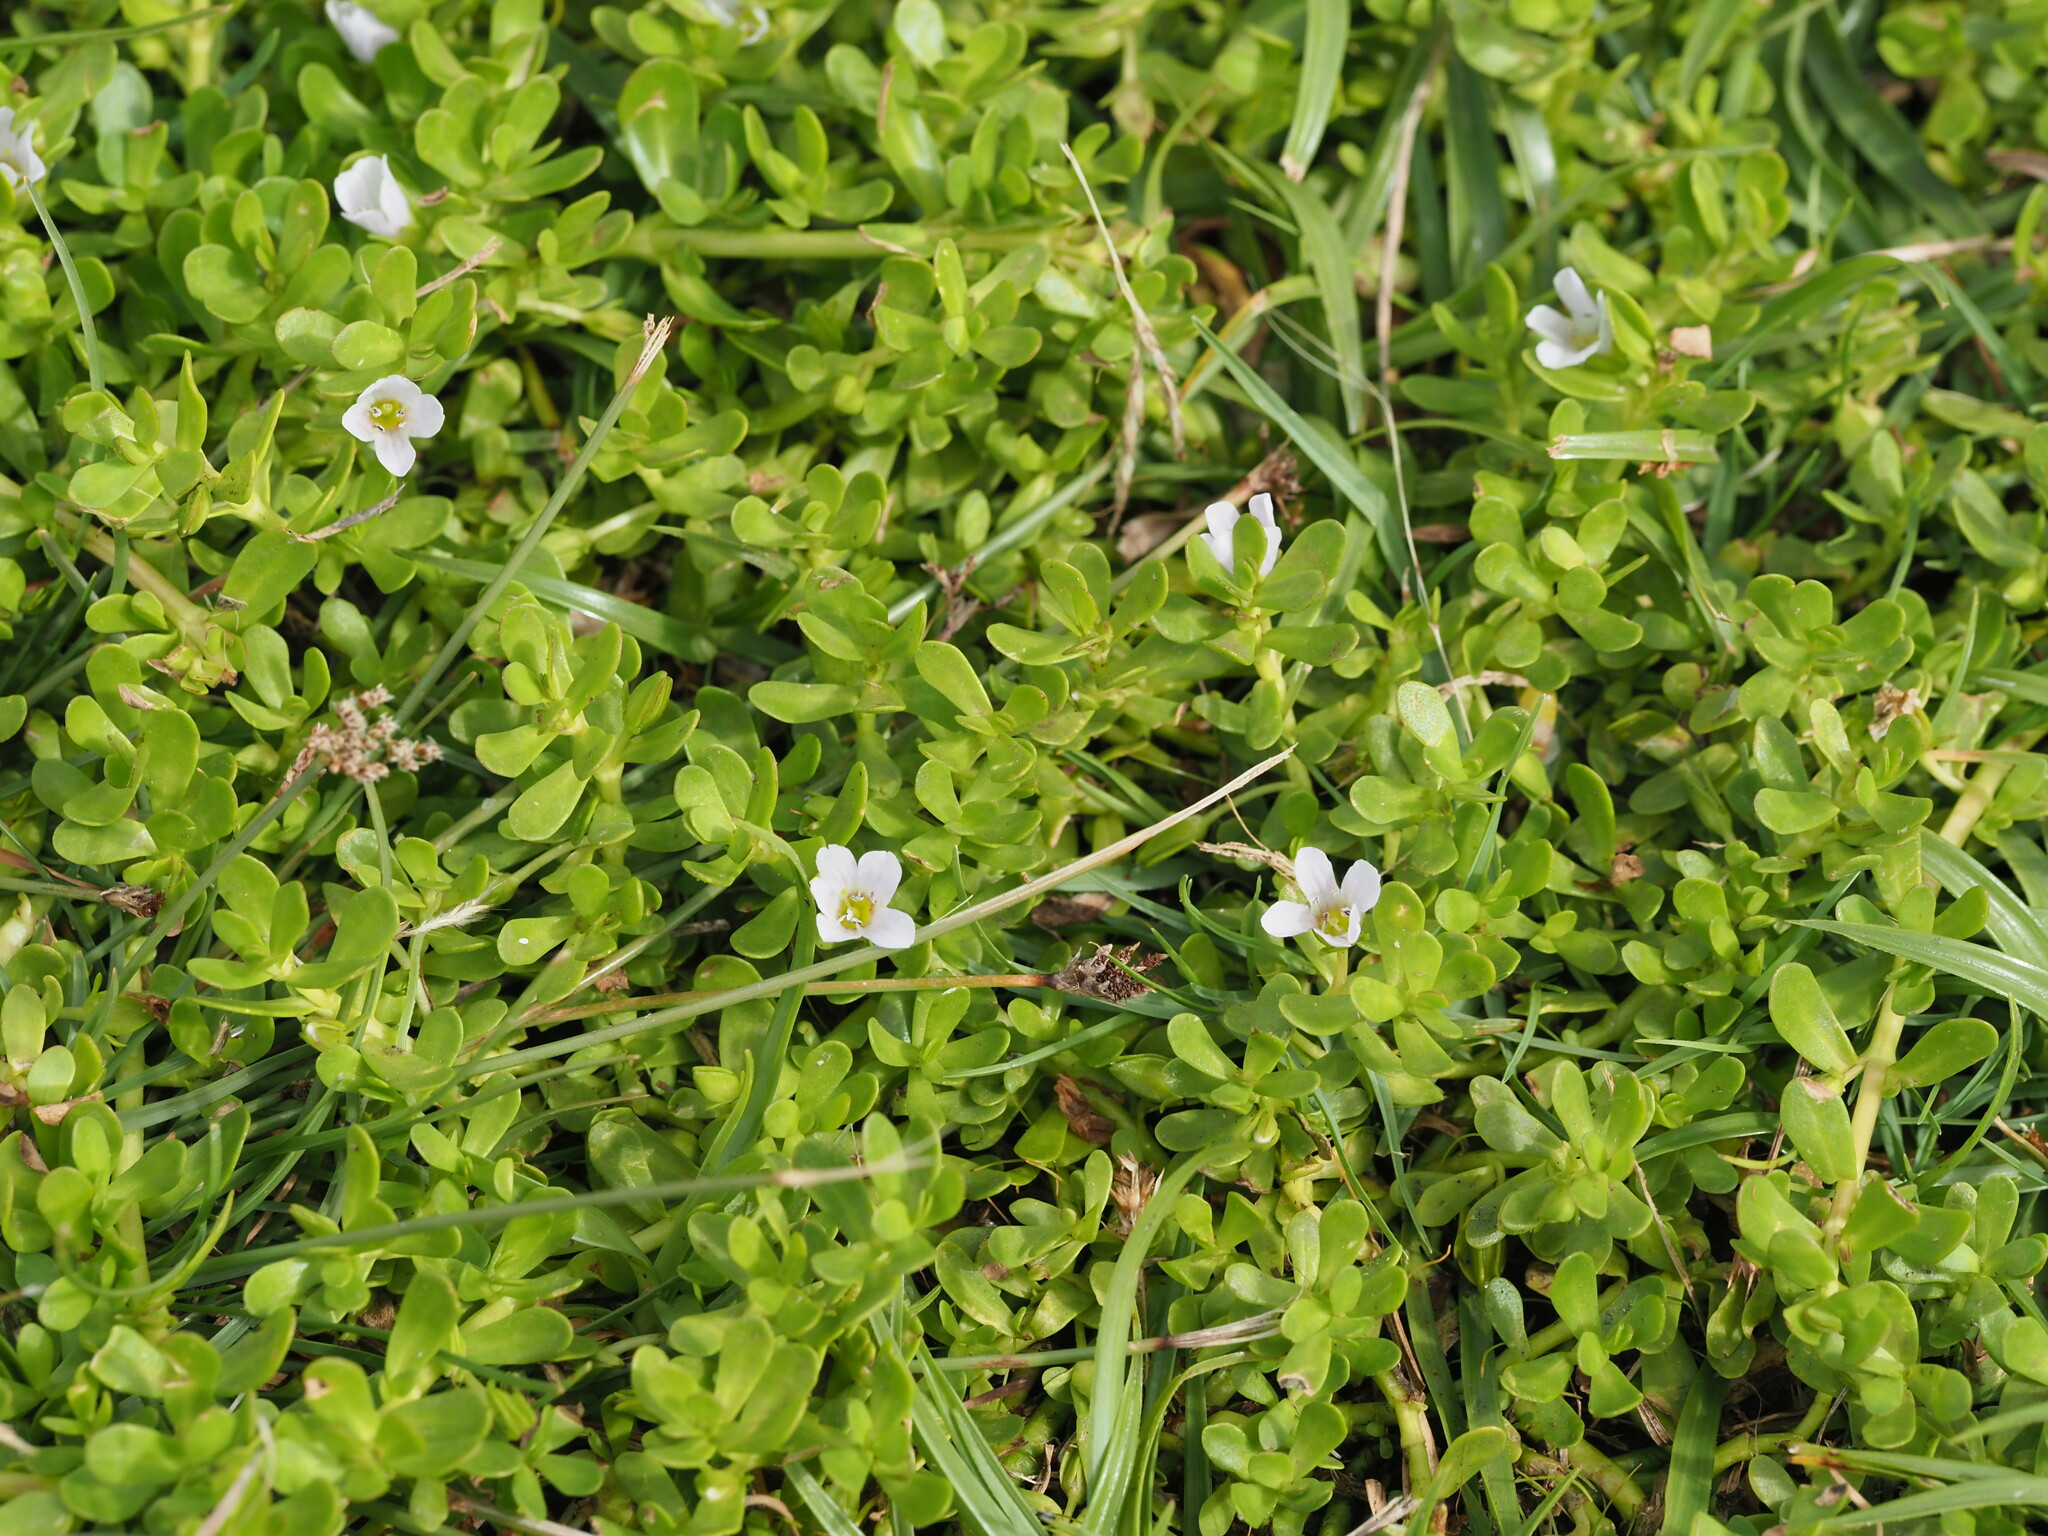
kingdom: Plantae
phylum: Tracheophyta
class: Magnoliopsida
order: Lamiales
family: Plantaginaceae
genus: Bacopa
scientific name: Bacopa monnieri
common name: Indian-pennywort
